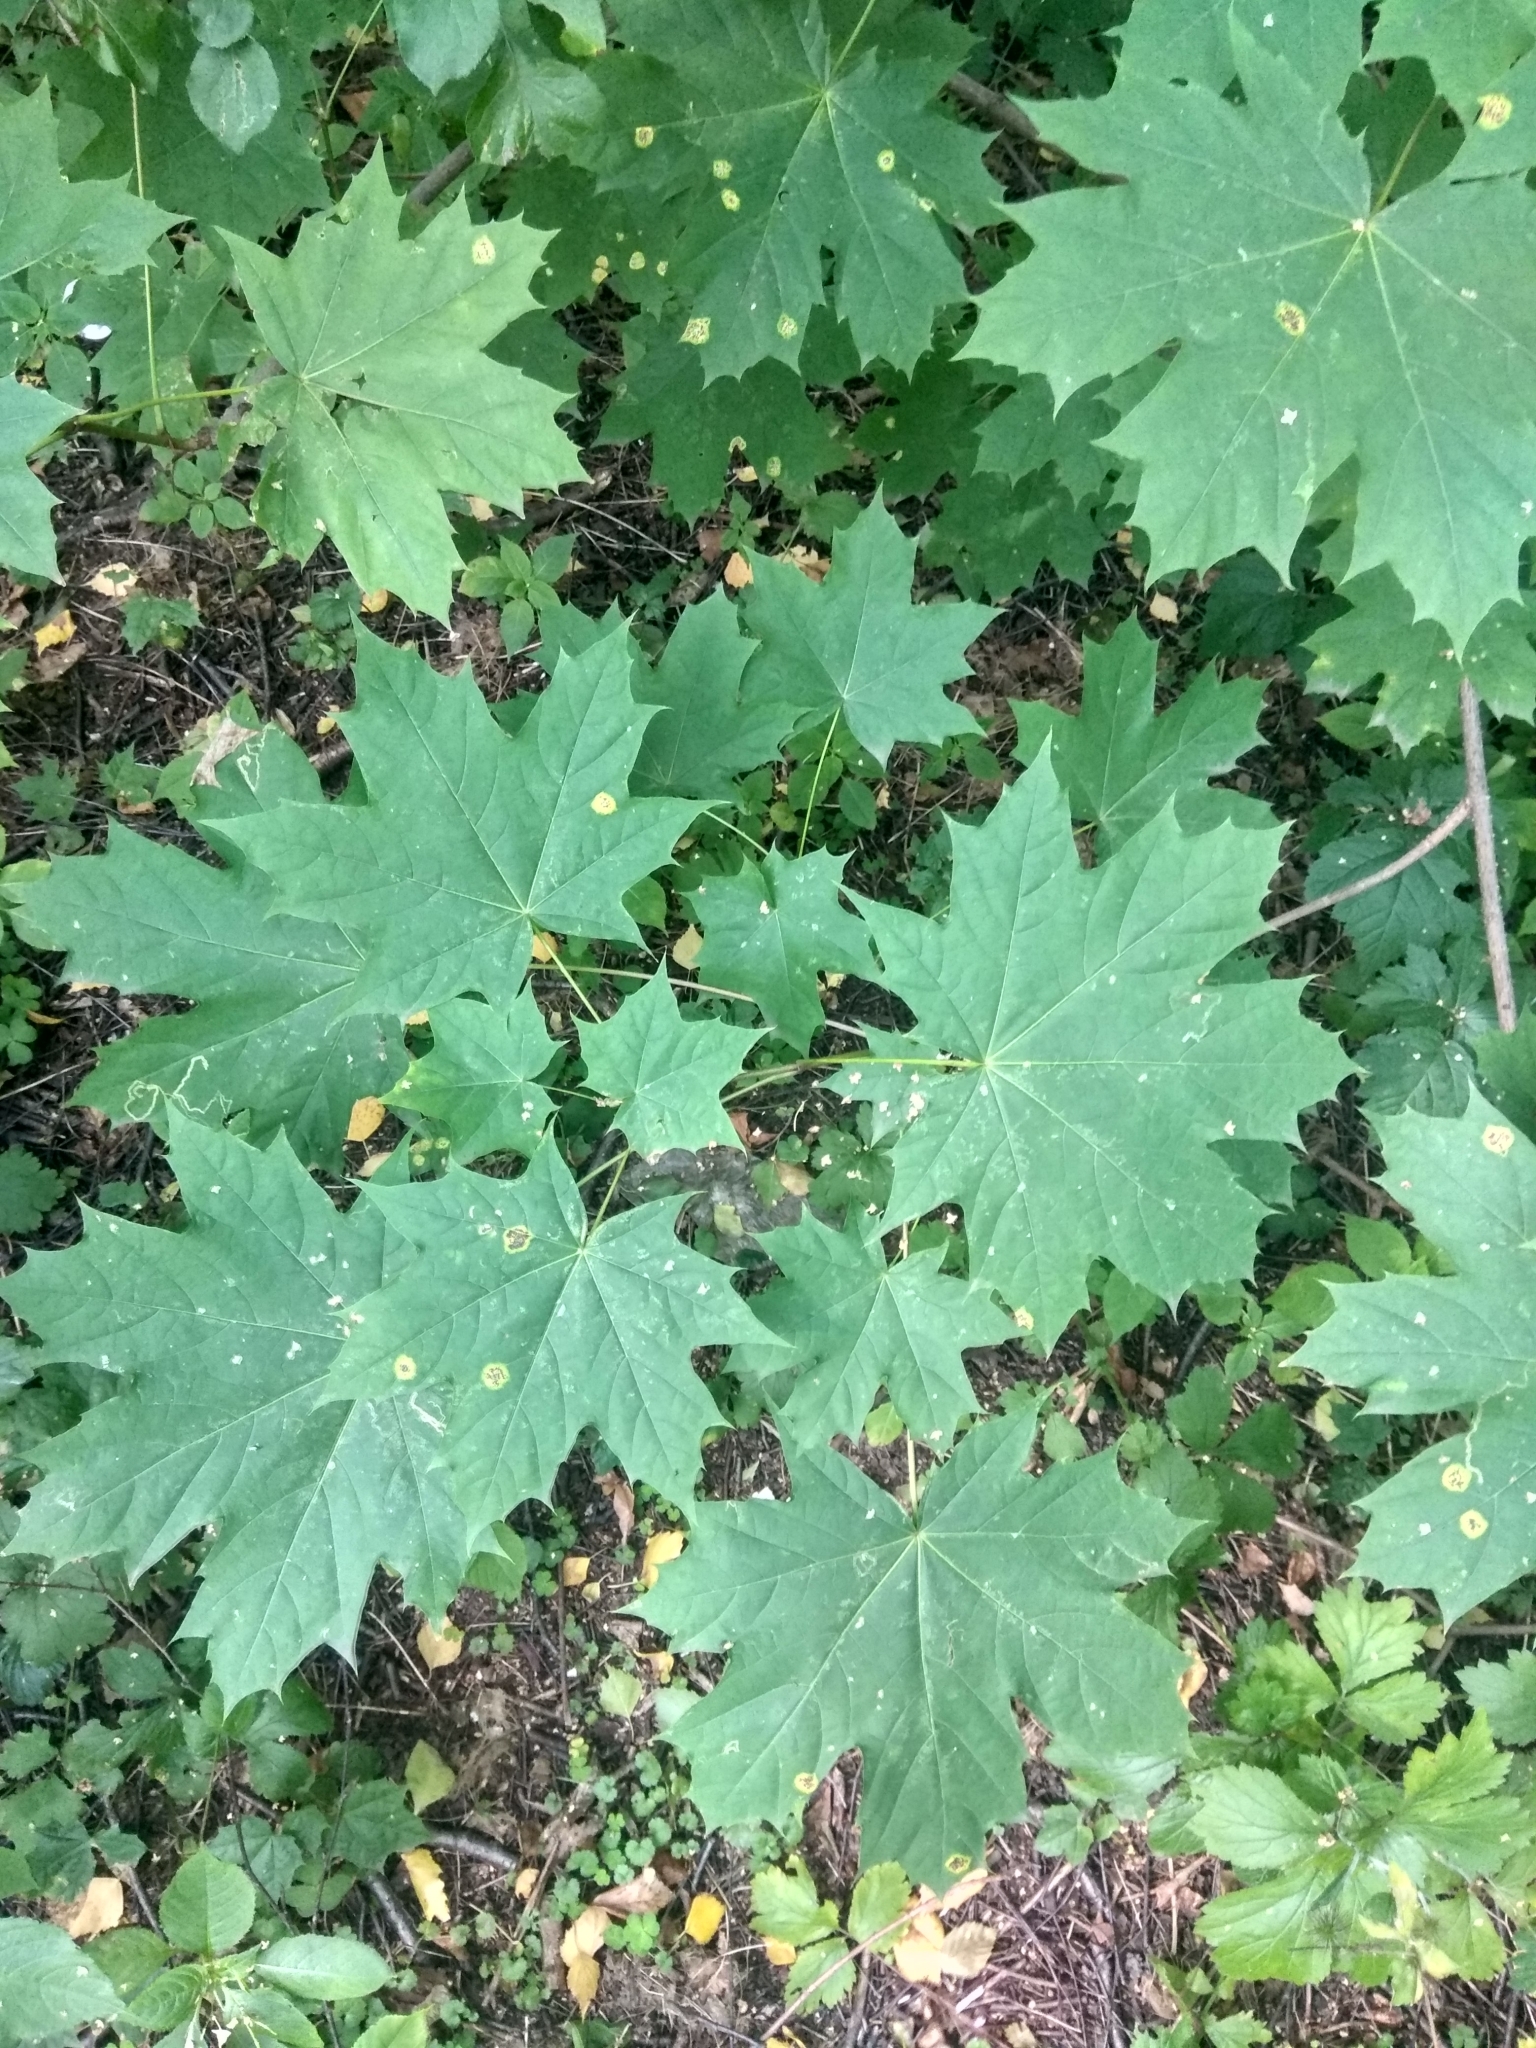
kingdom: Plantae
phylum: Tracheophyta
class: Magnoliopsida
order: Sapindales
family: Sapindaceae
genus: Acer
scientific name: Acer platanoides
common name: Norway maple
